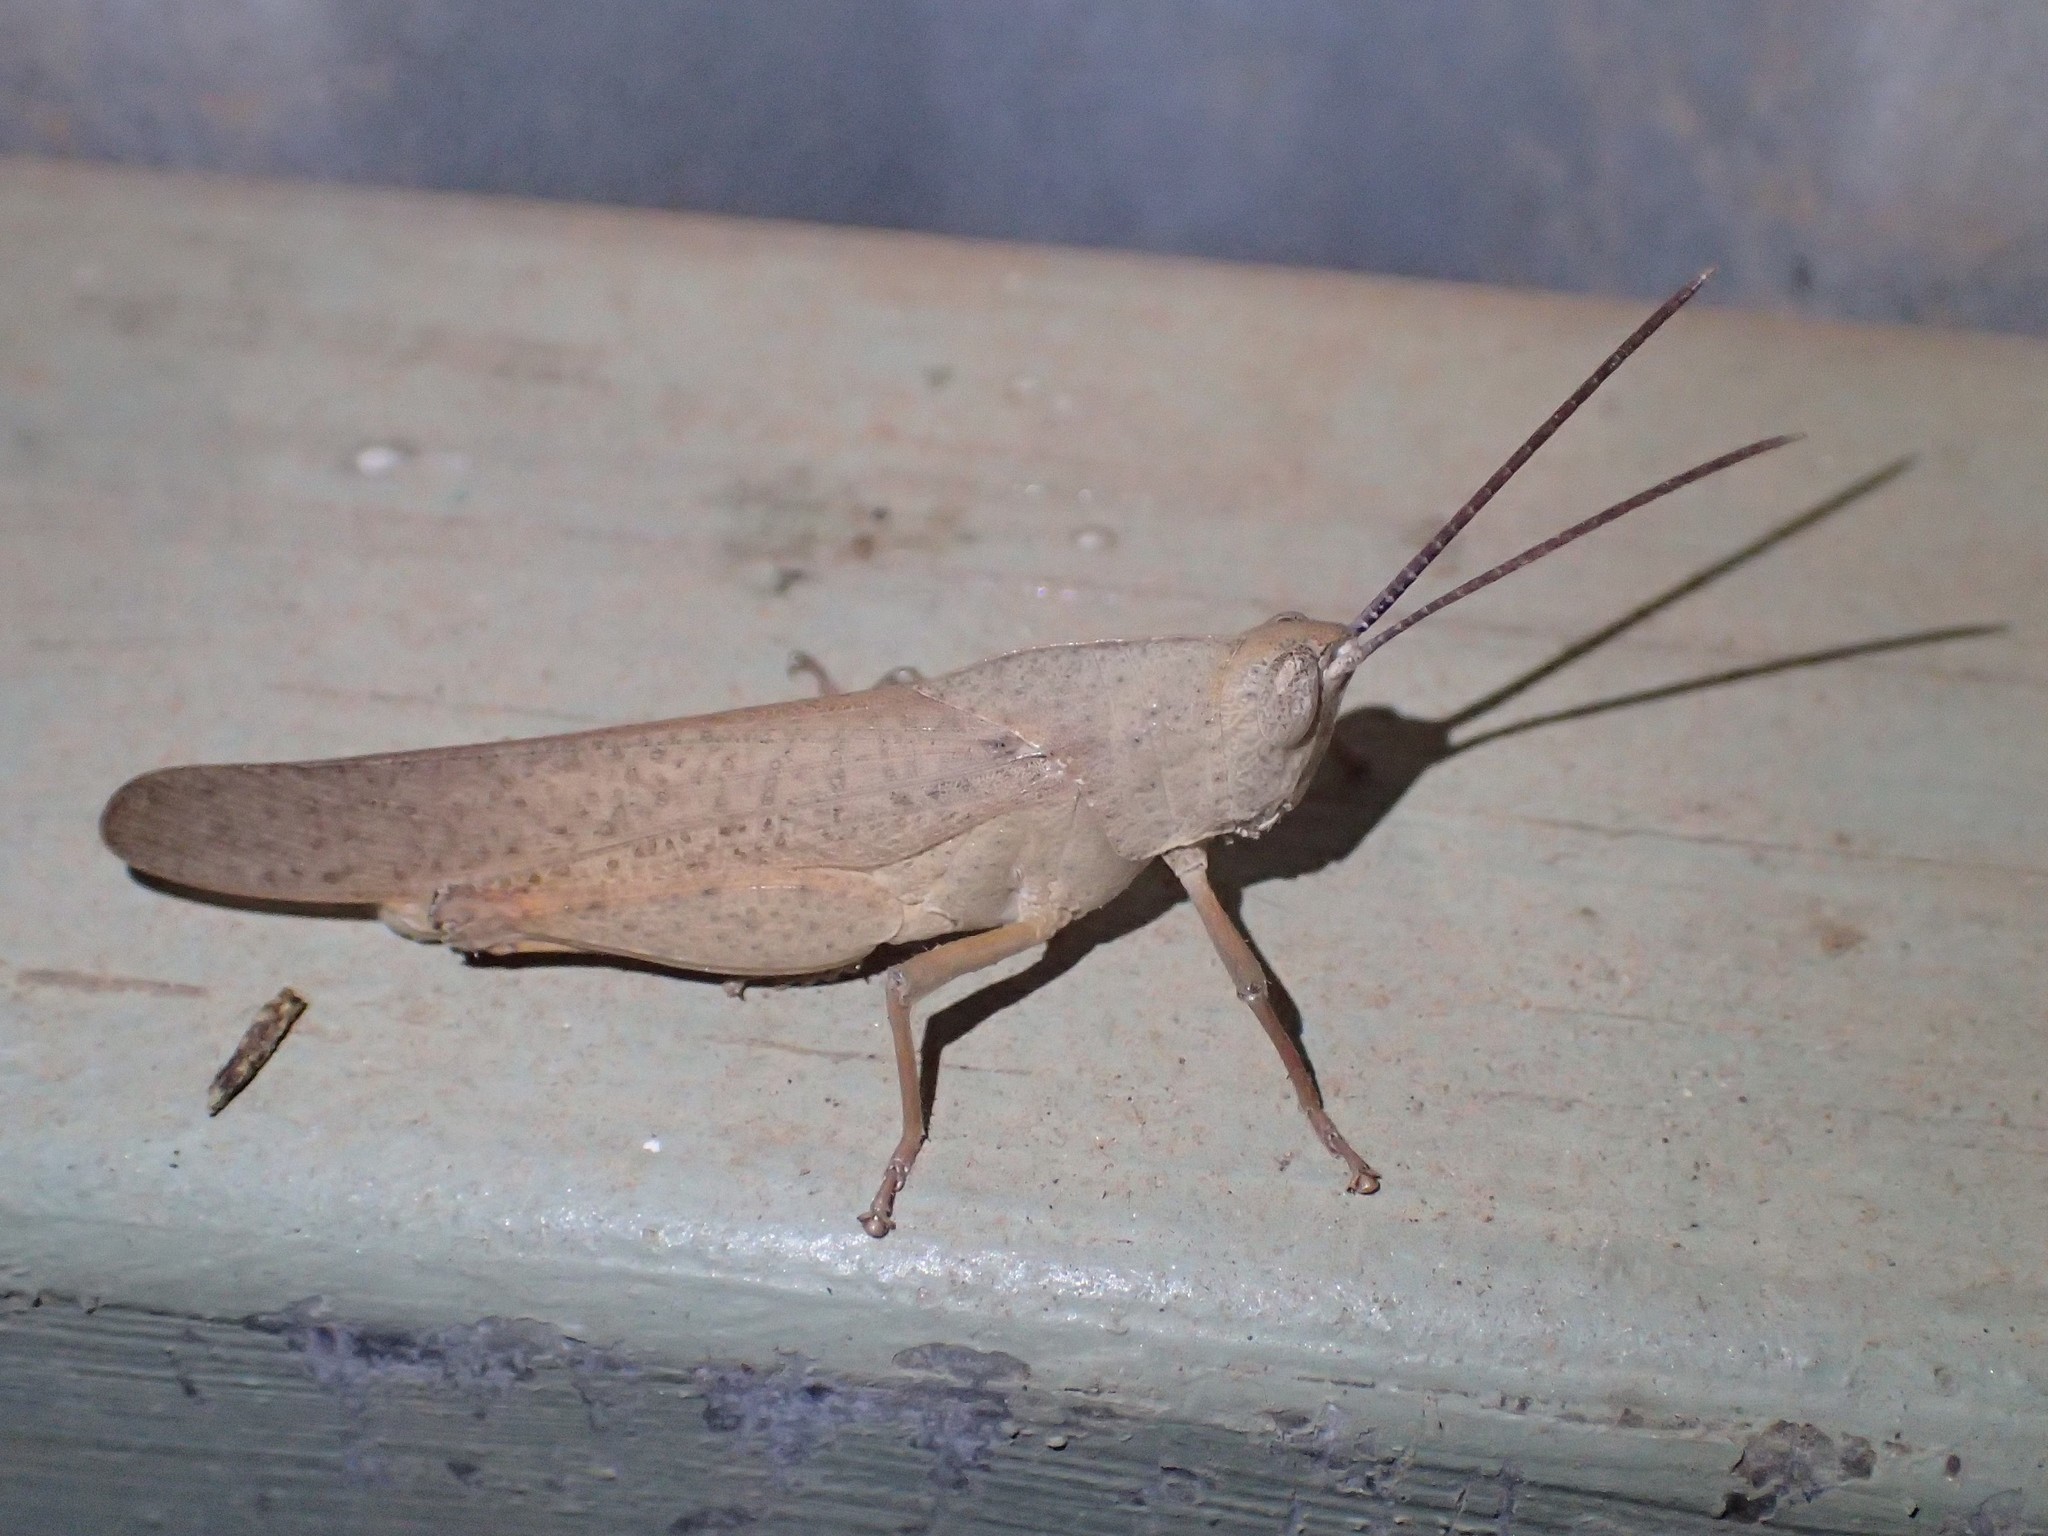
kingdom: Animalia
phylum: Arthropoda
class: Insecta
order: Orthoptera
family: Acrididae
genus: Goniaea
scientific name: Goniaea australasiae
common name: Gumleaf grasshopper
